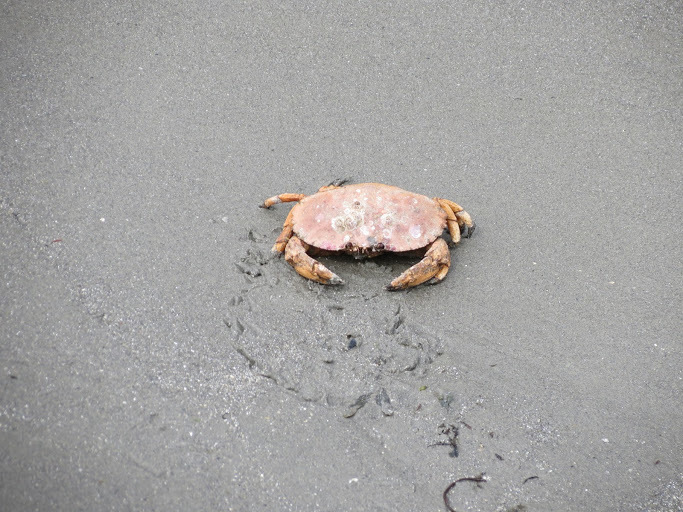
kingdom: Animalia
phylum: Arthropoda
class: Malacostraca
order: Decapoda
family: Cancridae
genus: Cancer
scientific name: Cancer borealis
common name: Jonah crab
